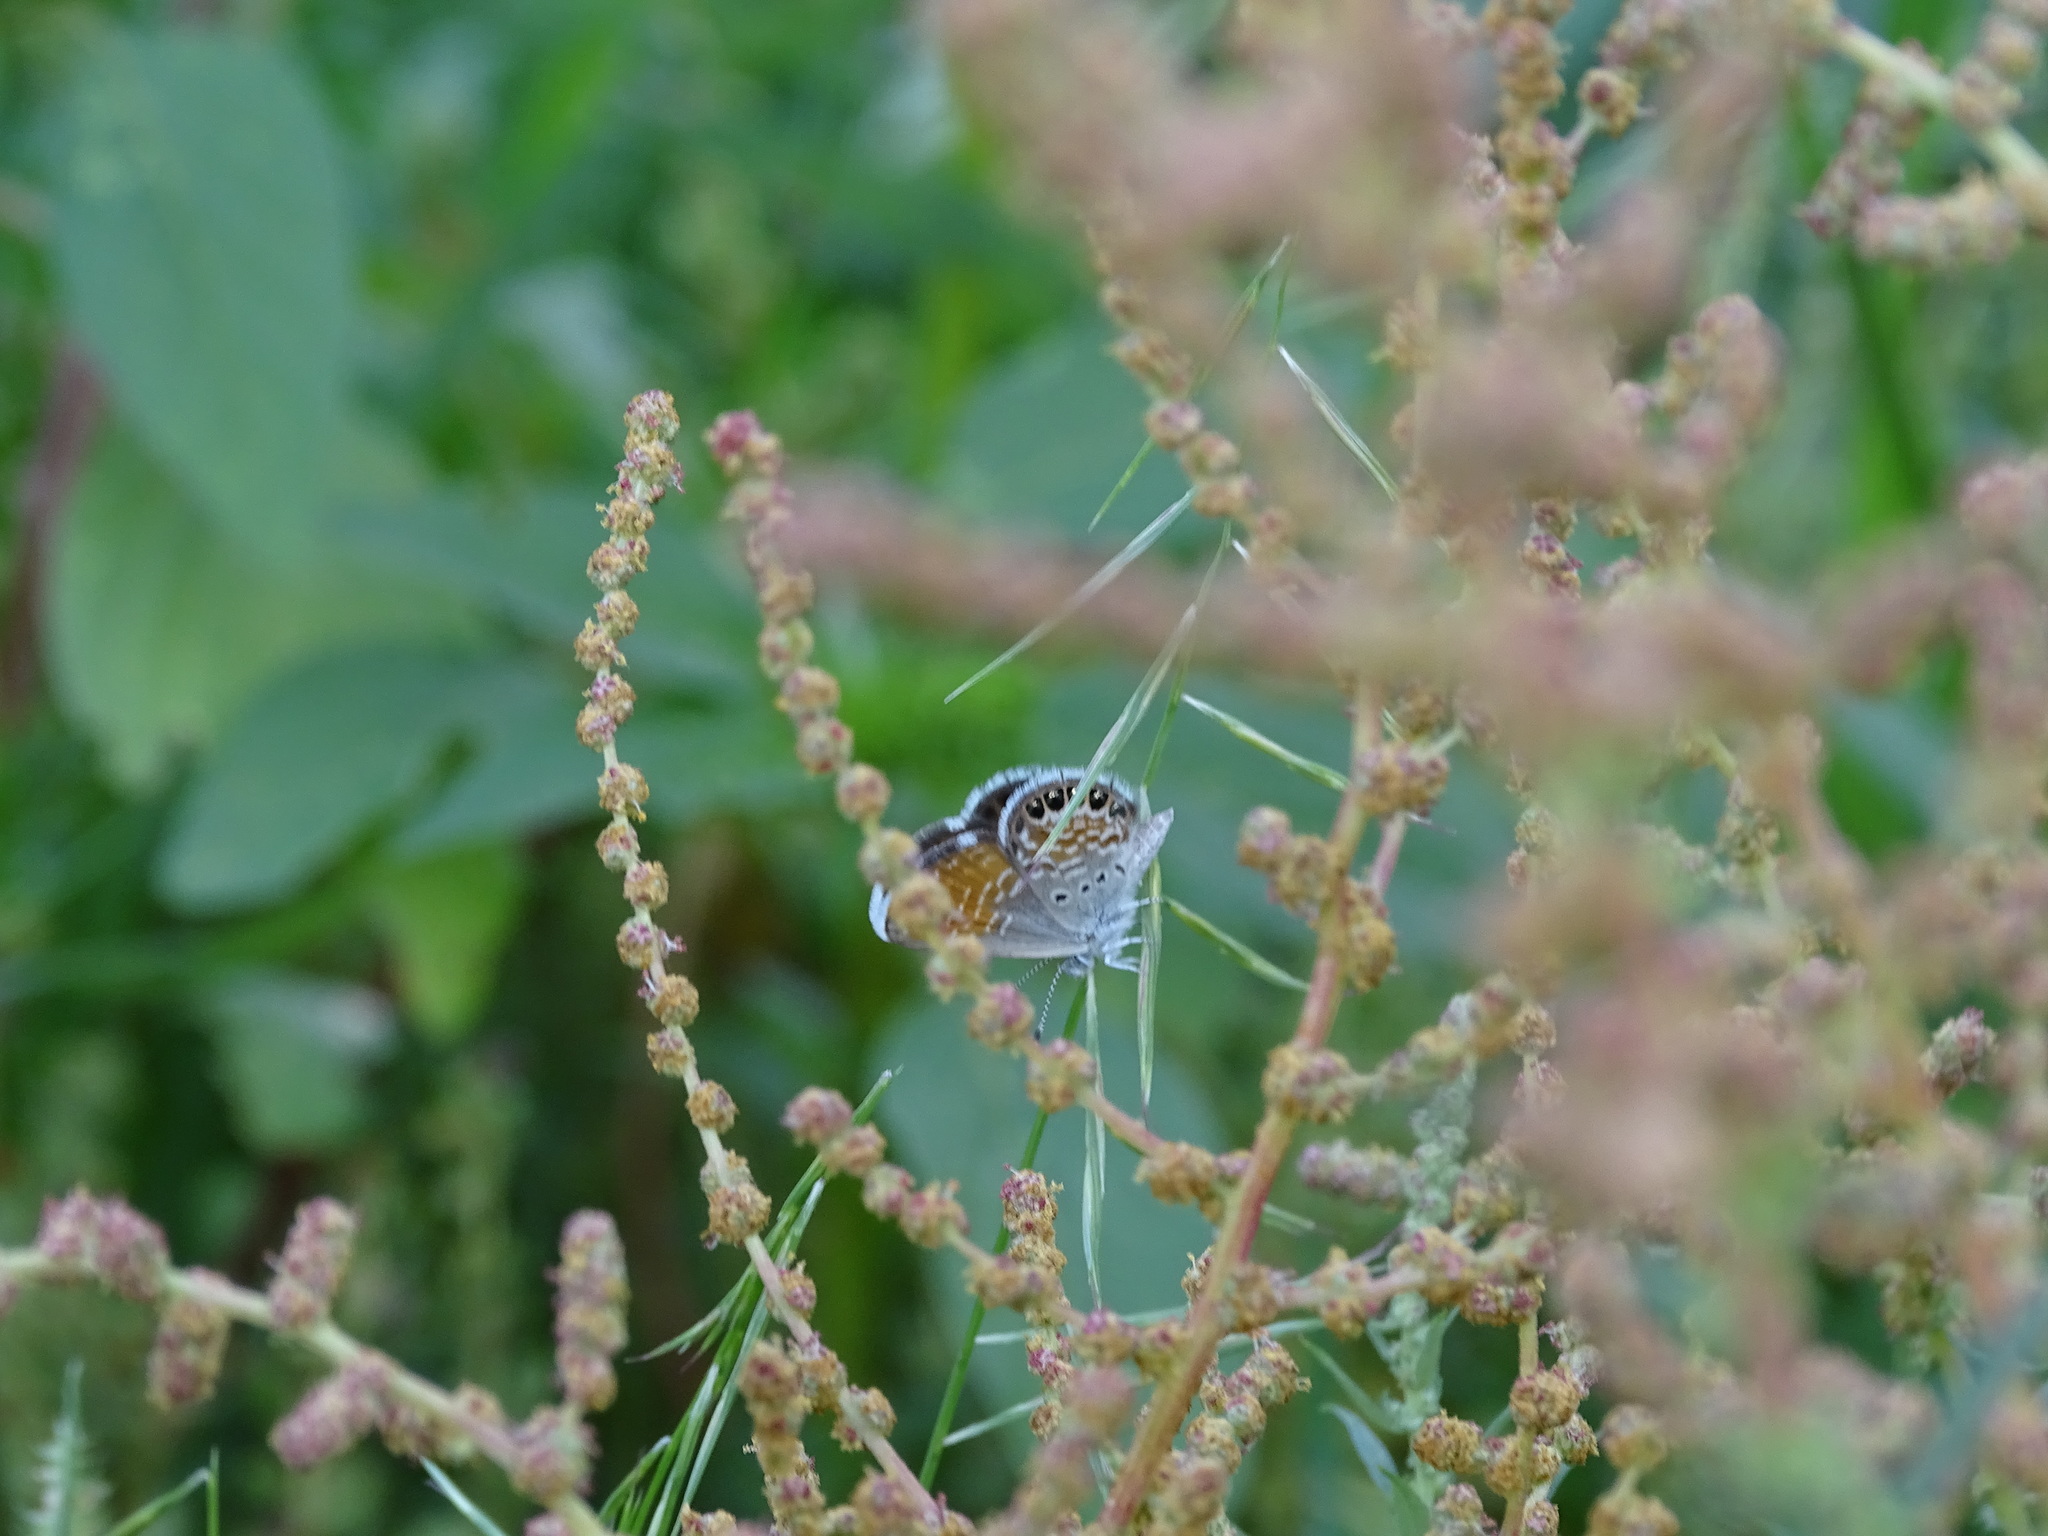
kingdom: Animalia
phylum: Arthropoda
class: Insecta
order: Lepidoptera
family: Lycaenidae
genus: Brephidium
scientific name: Brephidium exilis
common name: Pygmy blue
